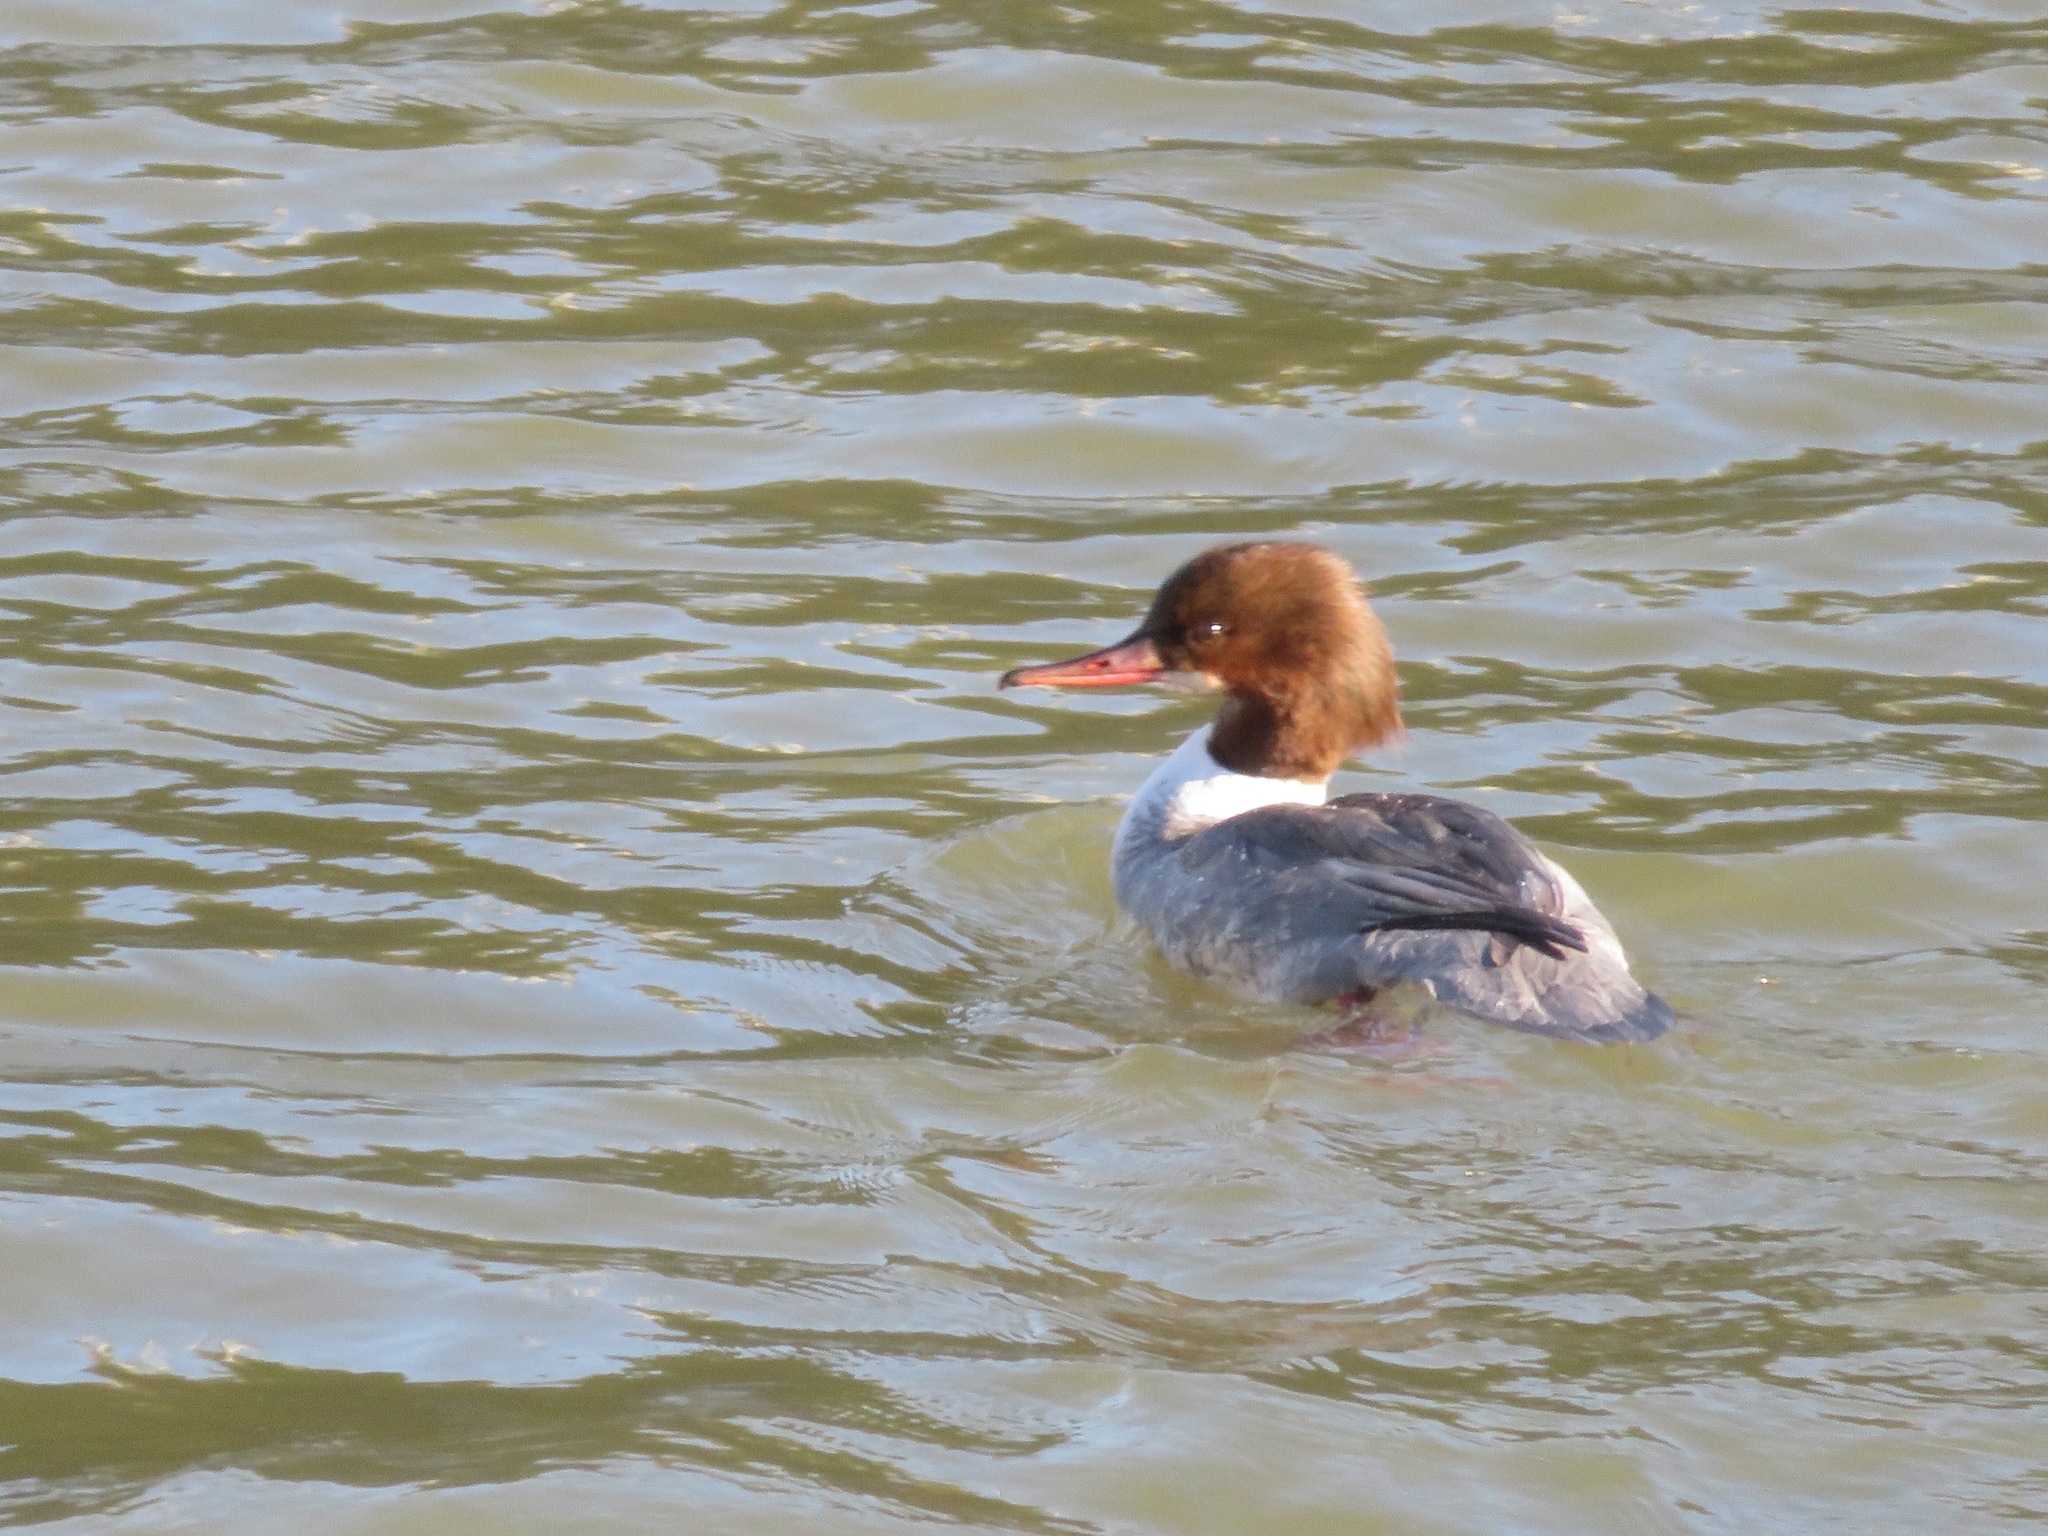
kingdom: Animalia
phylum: Chordata
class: Aves
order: Anseriformes
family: Anatidae
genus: Mergus
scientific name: Mergus merganser
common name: Common merganser
